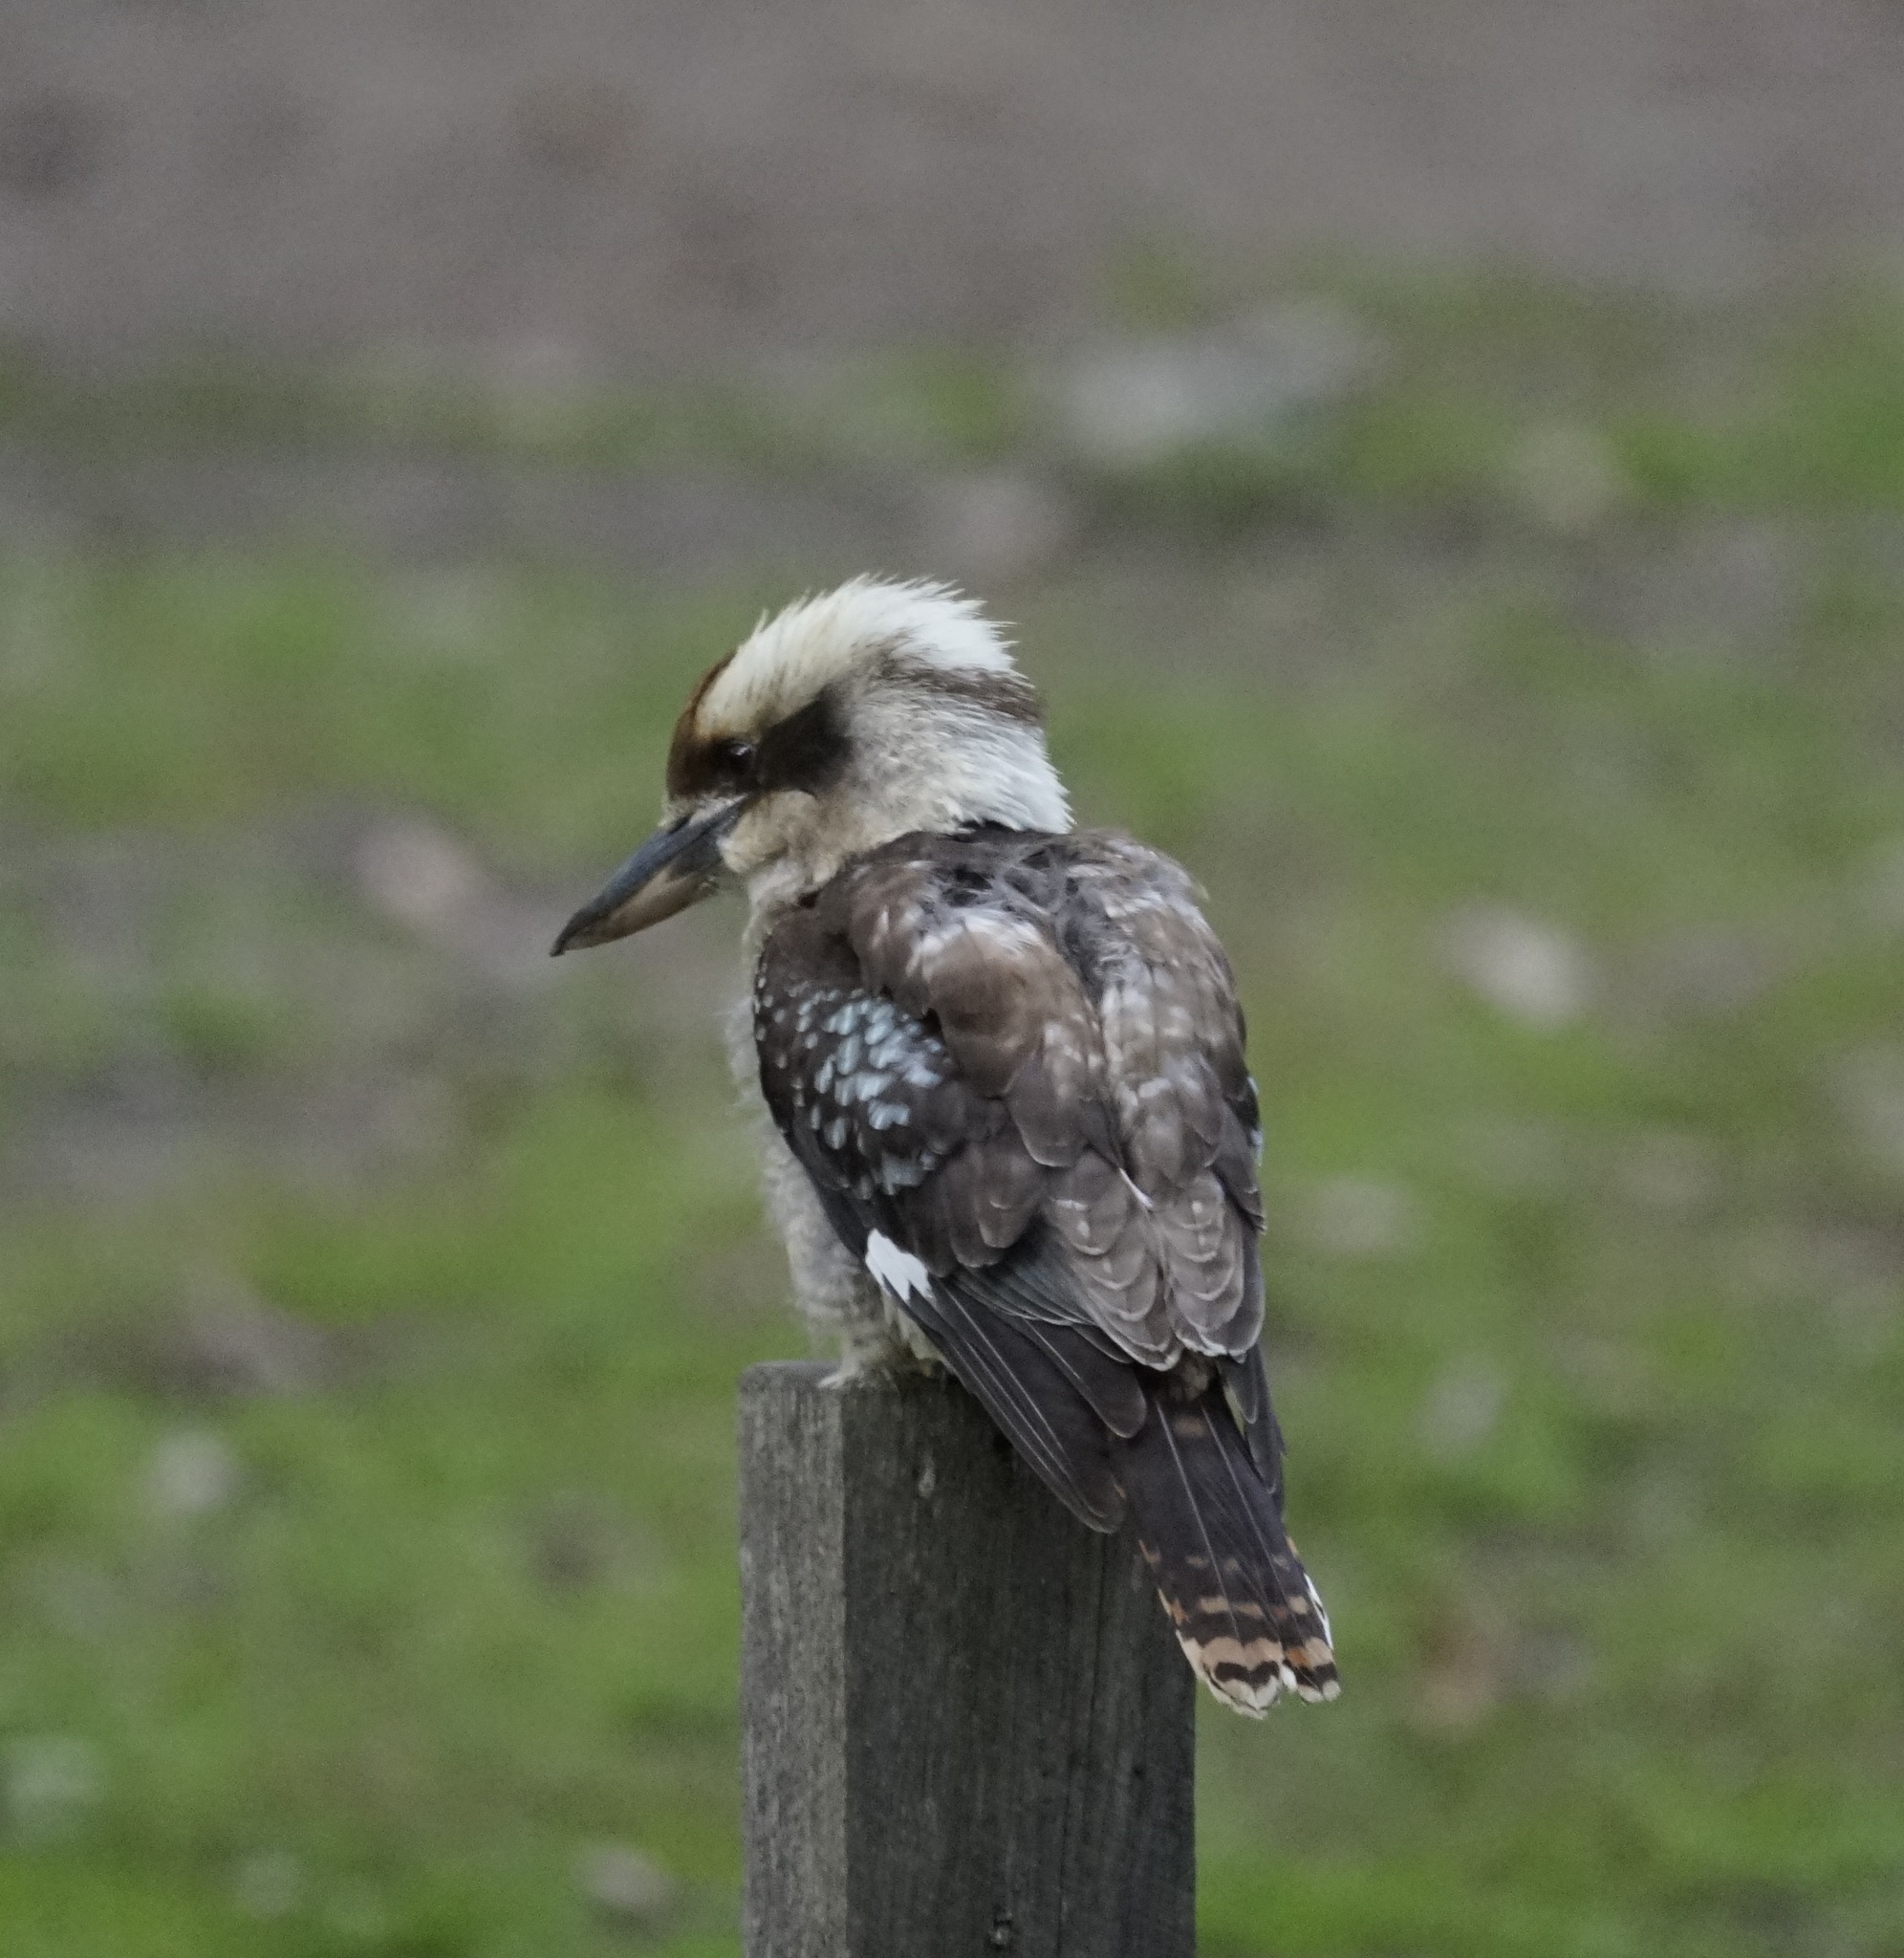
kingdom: Animalia
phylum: Chordata
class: Aves
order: Coraciiformes
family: Alcedinidae
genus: Dacelo
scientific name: Dacelo novaeguineae
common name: Laughing kookaburra
